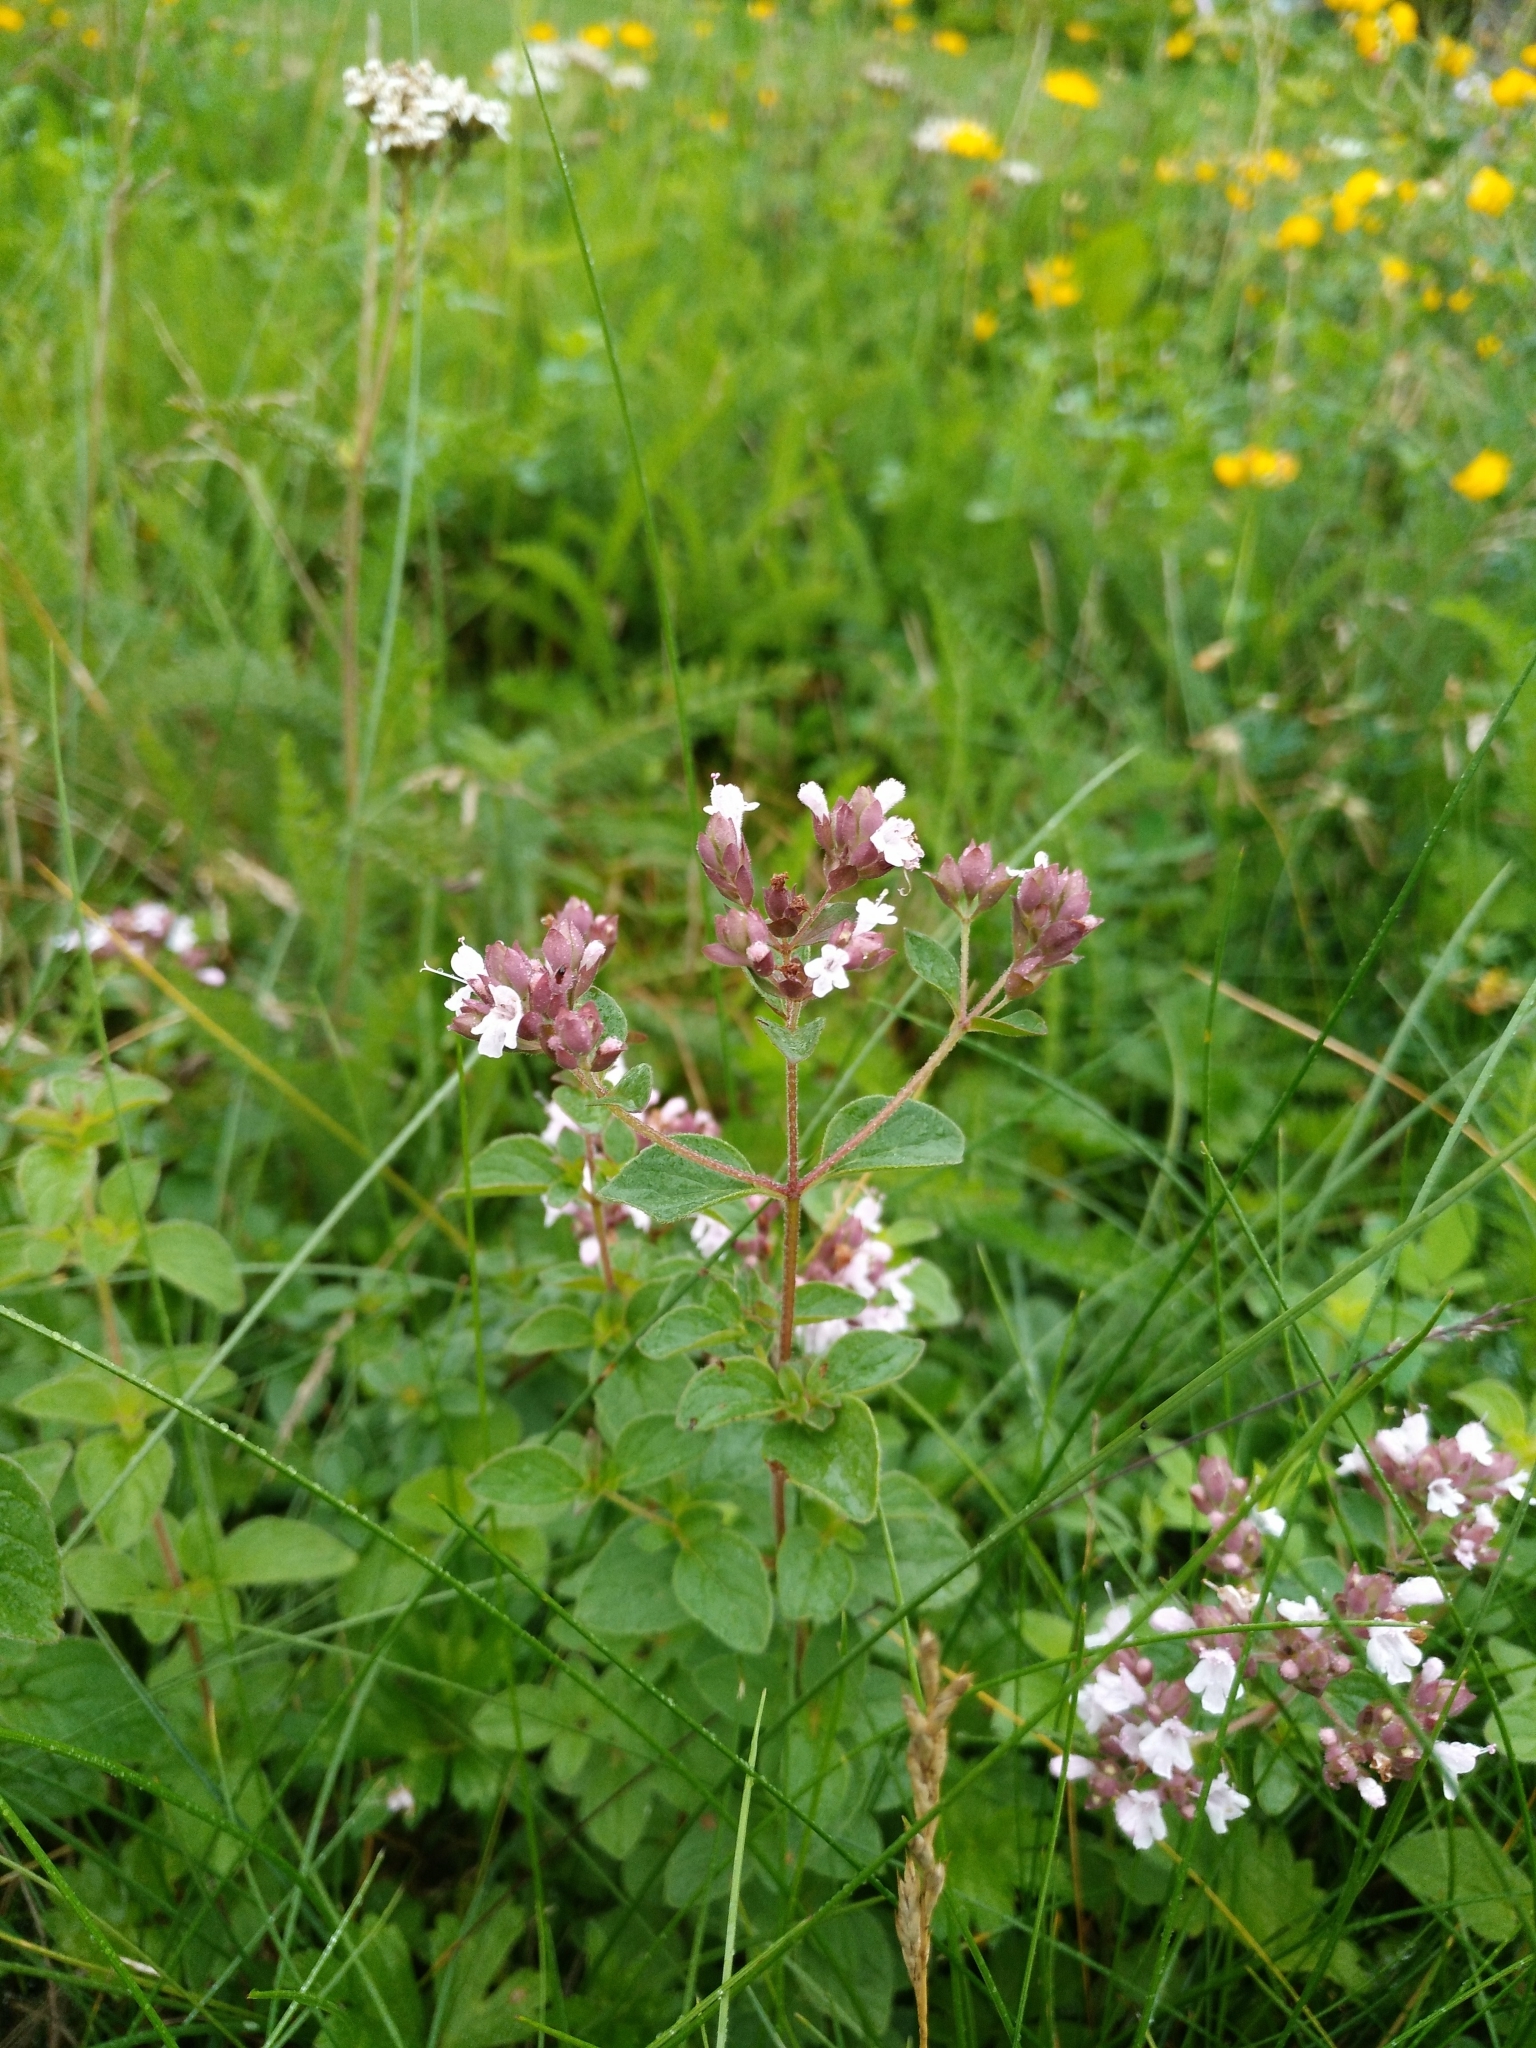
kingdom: Plantae
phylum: Tracheophyta
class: Magnoliopsida
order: Lamiales
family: Lamiaceae
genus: Origanum
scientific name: Origanum vulgare
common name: Wild marjoram
